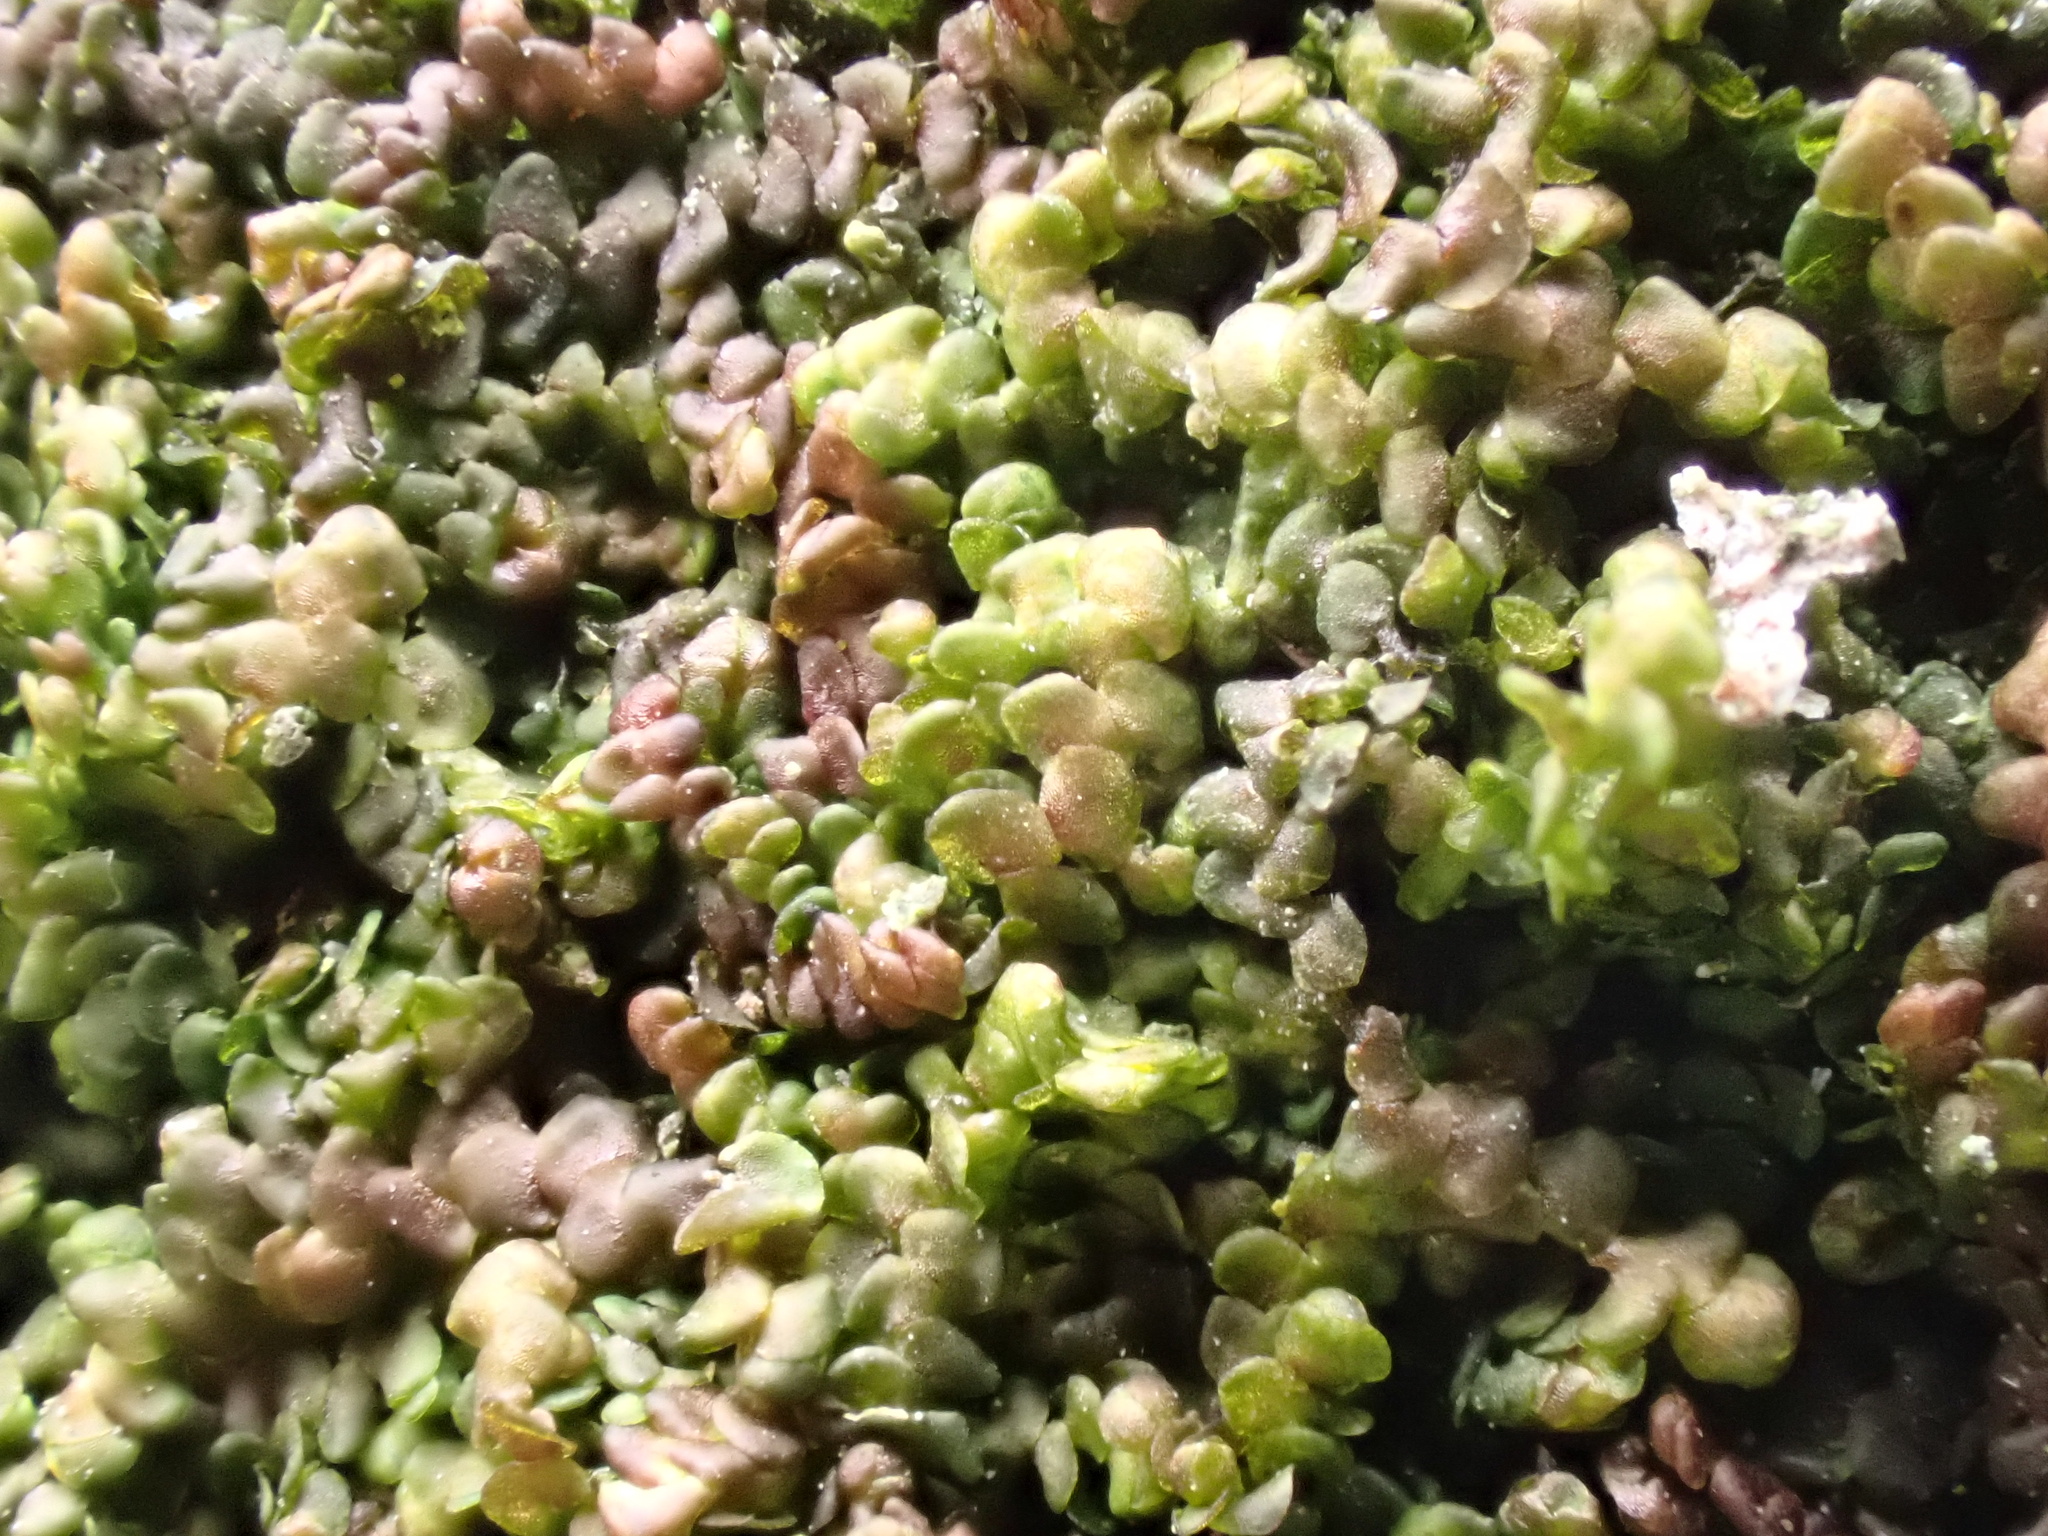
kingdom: Plantae
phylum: Marchantiophyta
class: Jungermanniopsida
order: Porellales
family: Frullaniaceae
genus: Frullania
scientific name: Frullania dilatata
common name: Dilated scalewort
